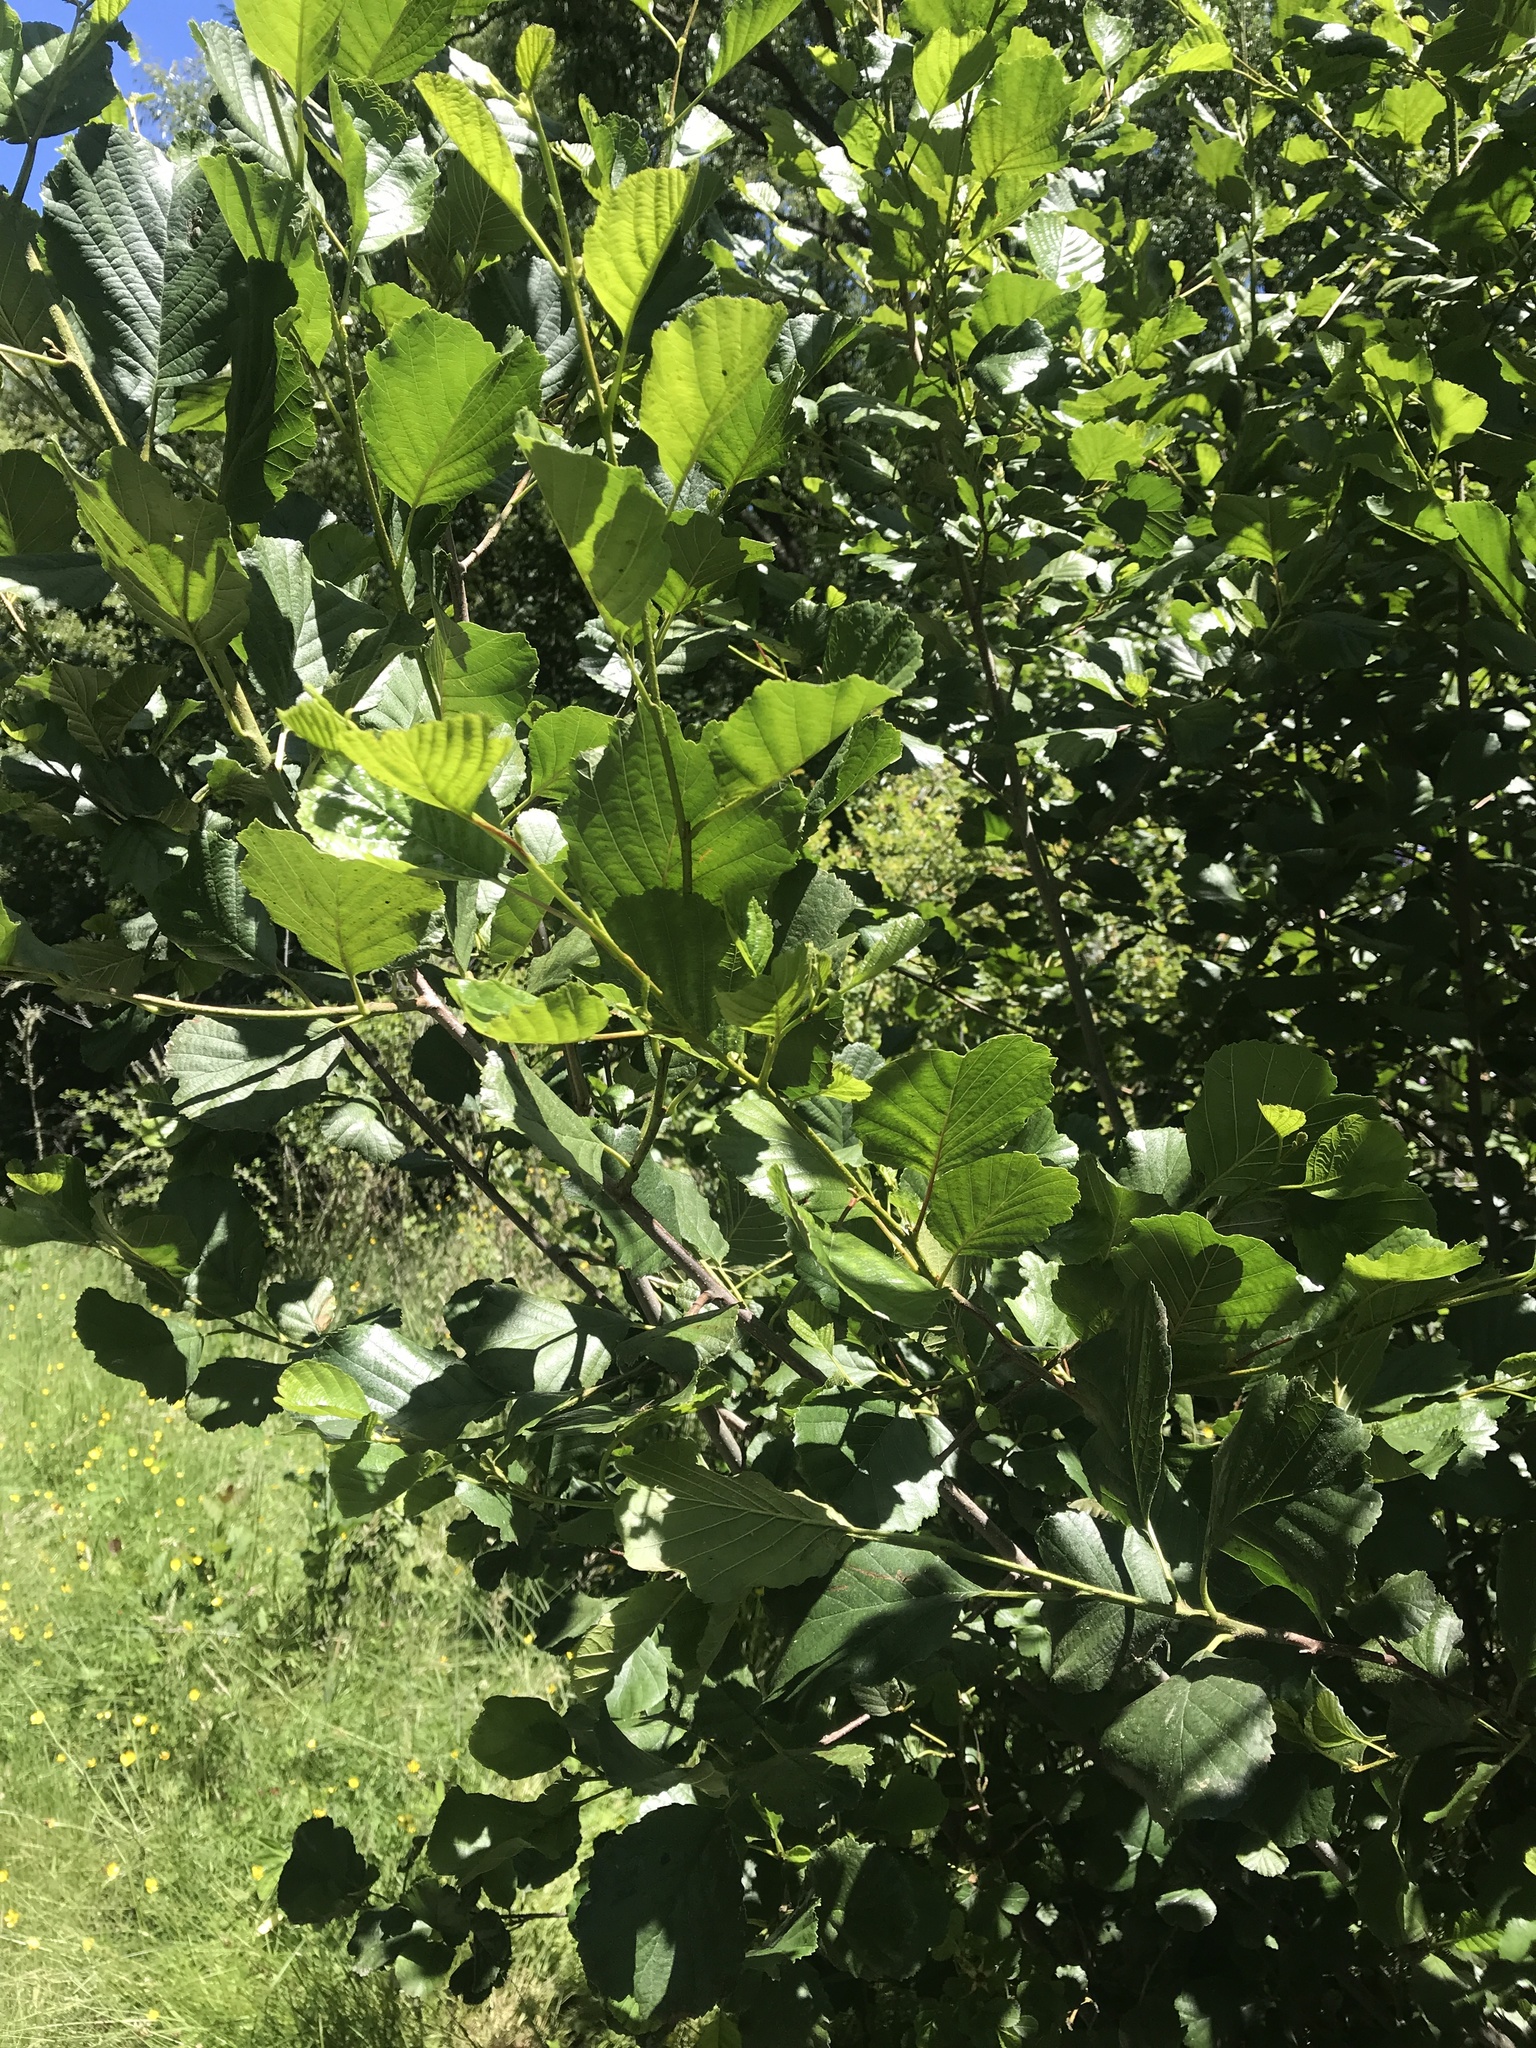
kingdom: Plantae
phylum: Tracheophyta
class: Magnoliopsida
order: Fagales
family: Betulaceae
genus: Alnus
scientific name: Alnus glutinosa
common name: Black alder
